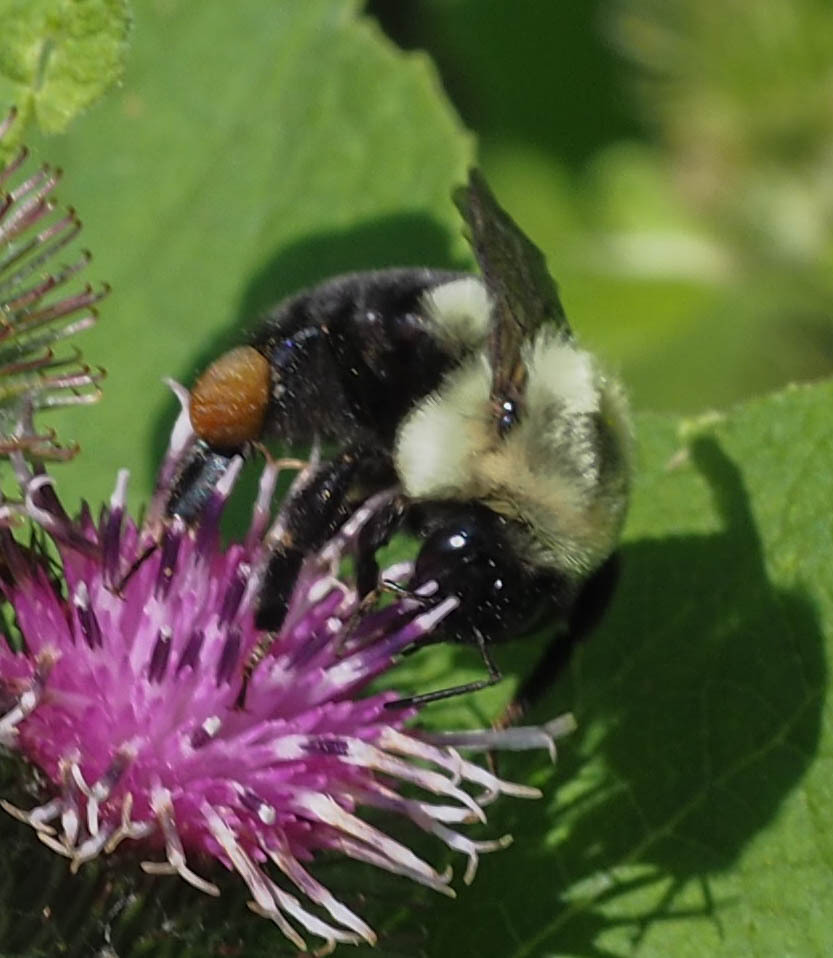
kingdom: Animalia
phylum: Arthropoda
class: Insecta
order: Hymenoptera
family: Apidae
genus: Bombus
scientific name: Bombus impatiens
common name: Common eastern bumble bee
